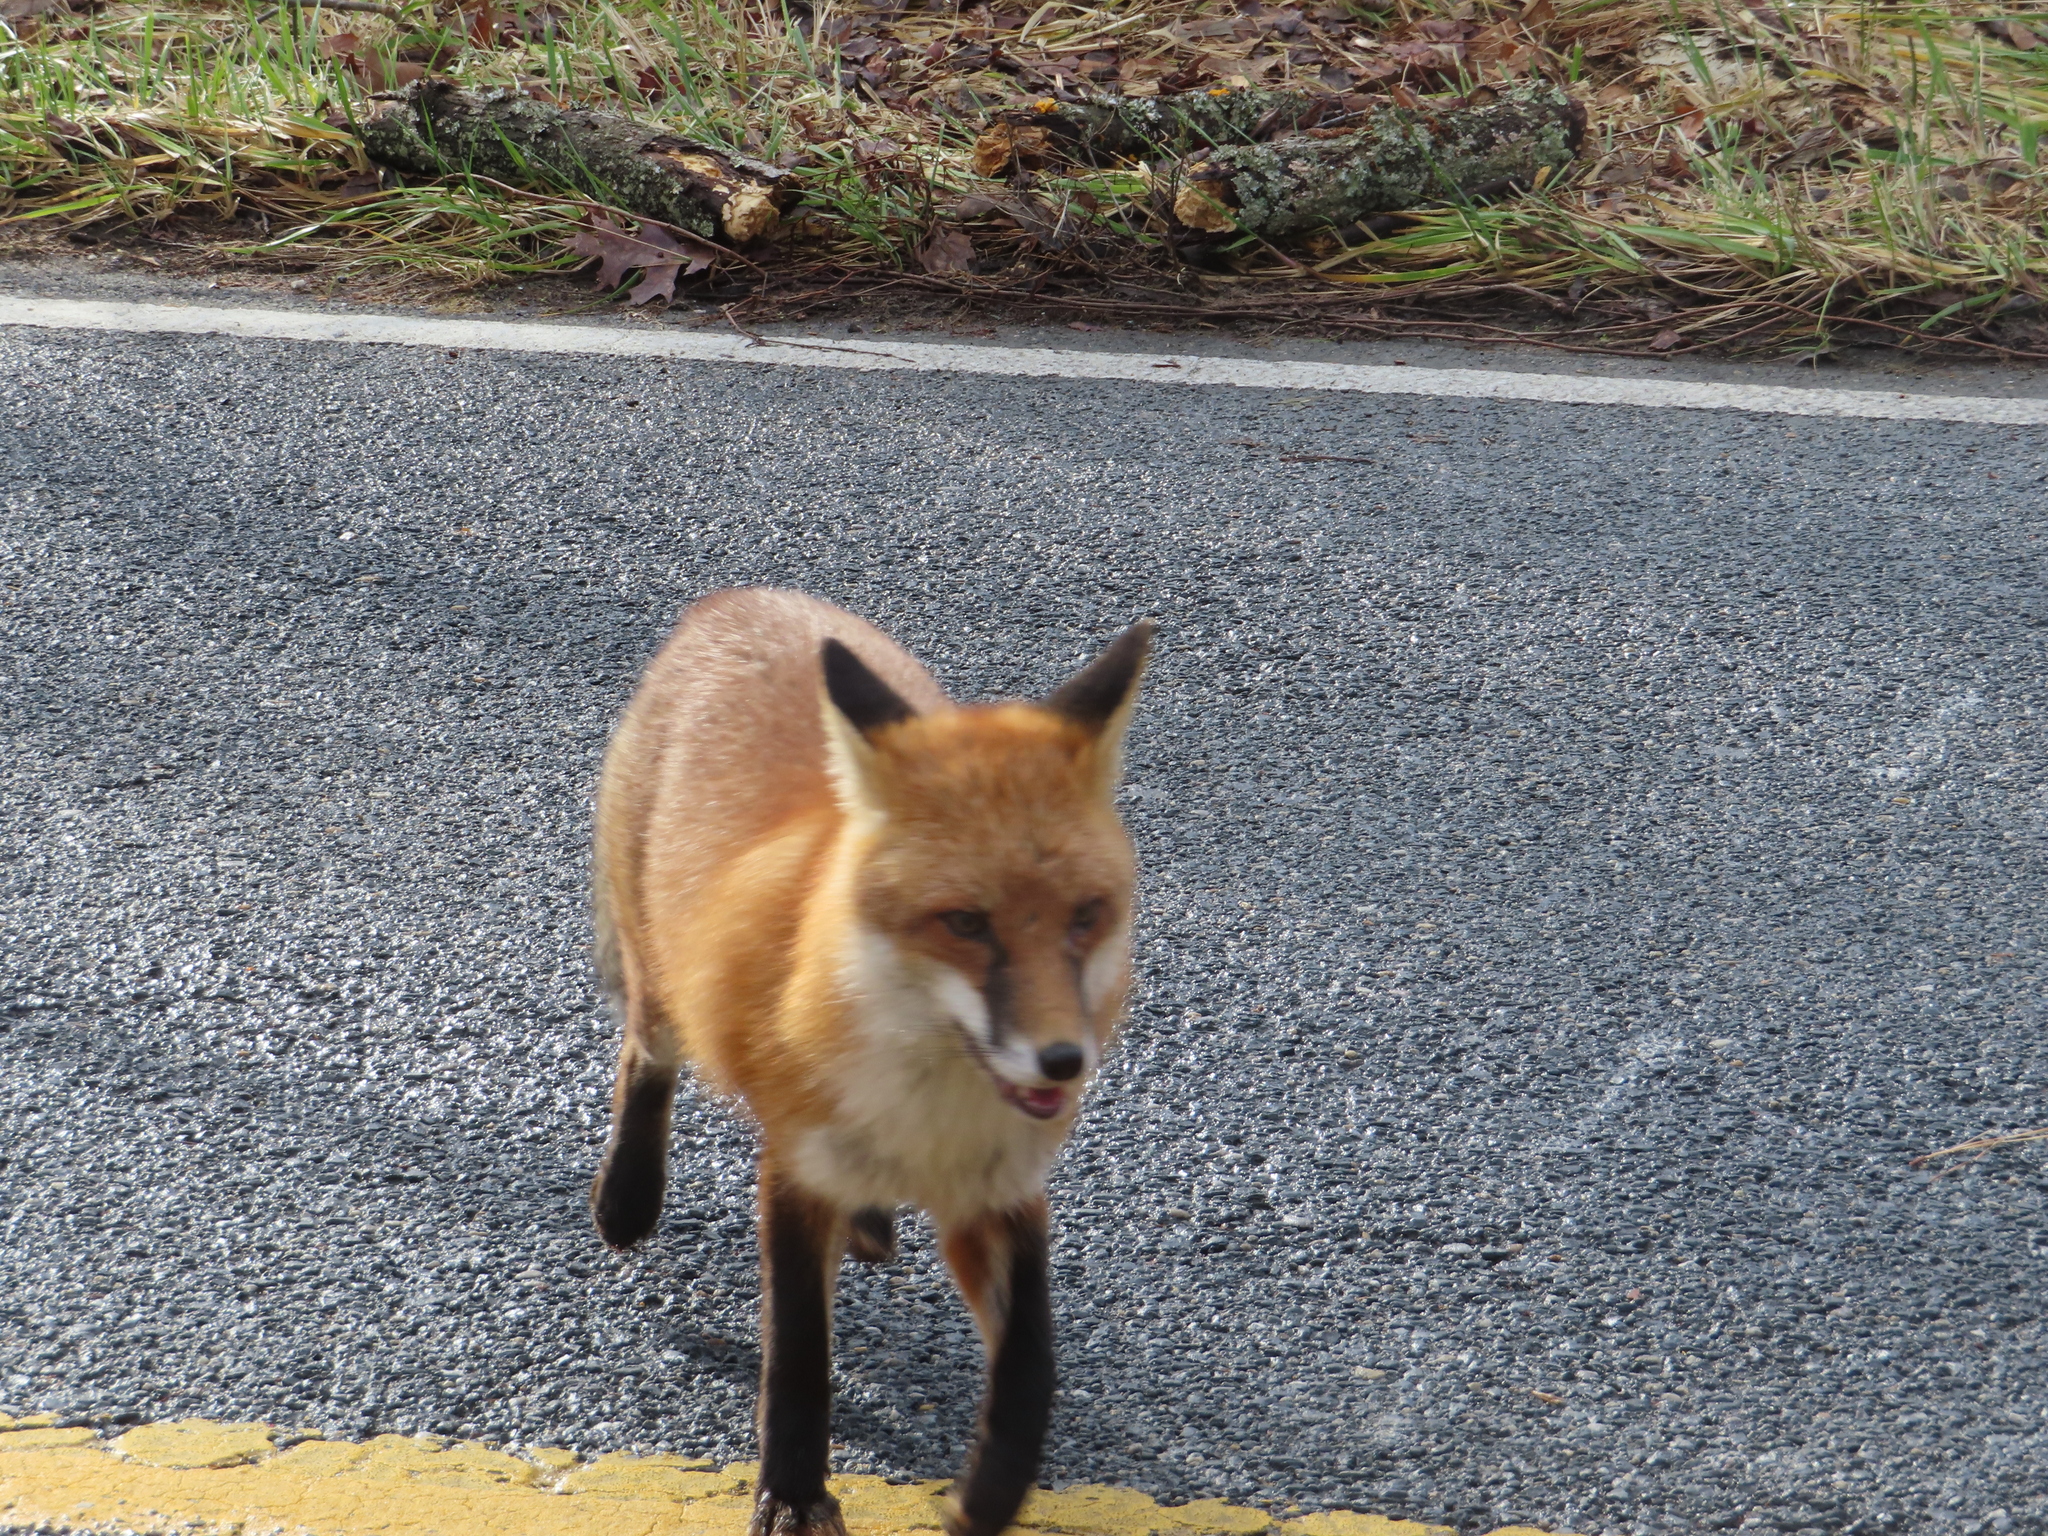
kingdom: Animalia
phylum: Chordata
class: Mammalia
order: Carnivora
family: Canidae
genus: Vulpes
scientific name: Vulpes vulpes
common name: Red fox
